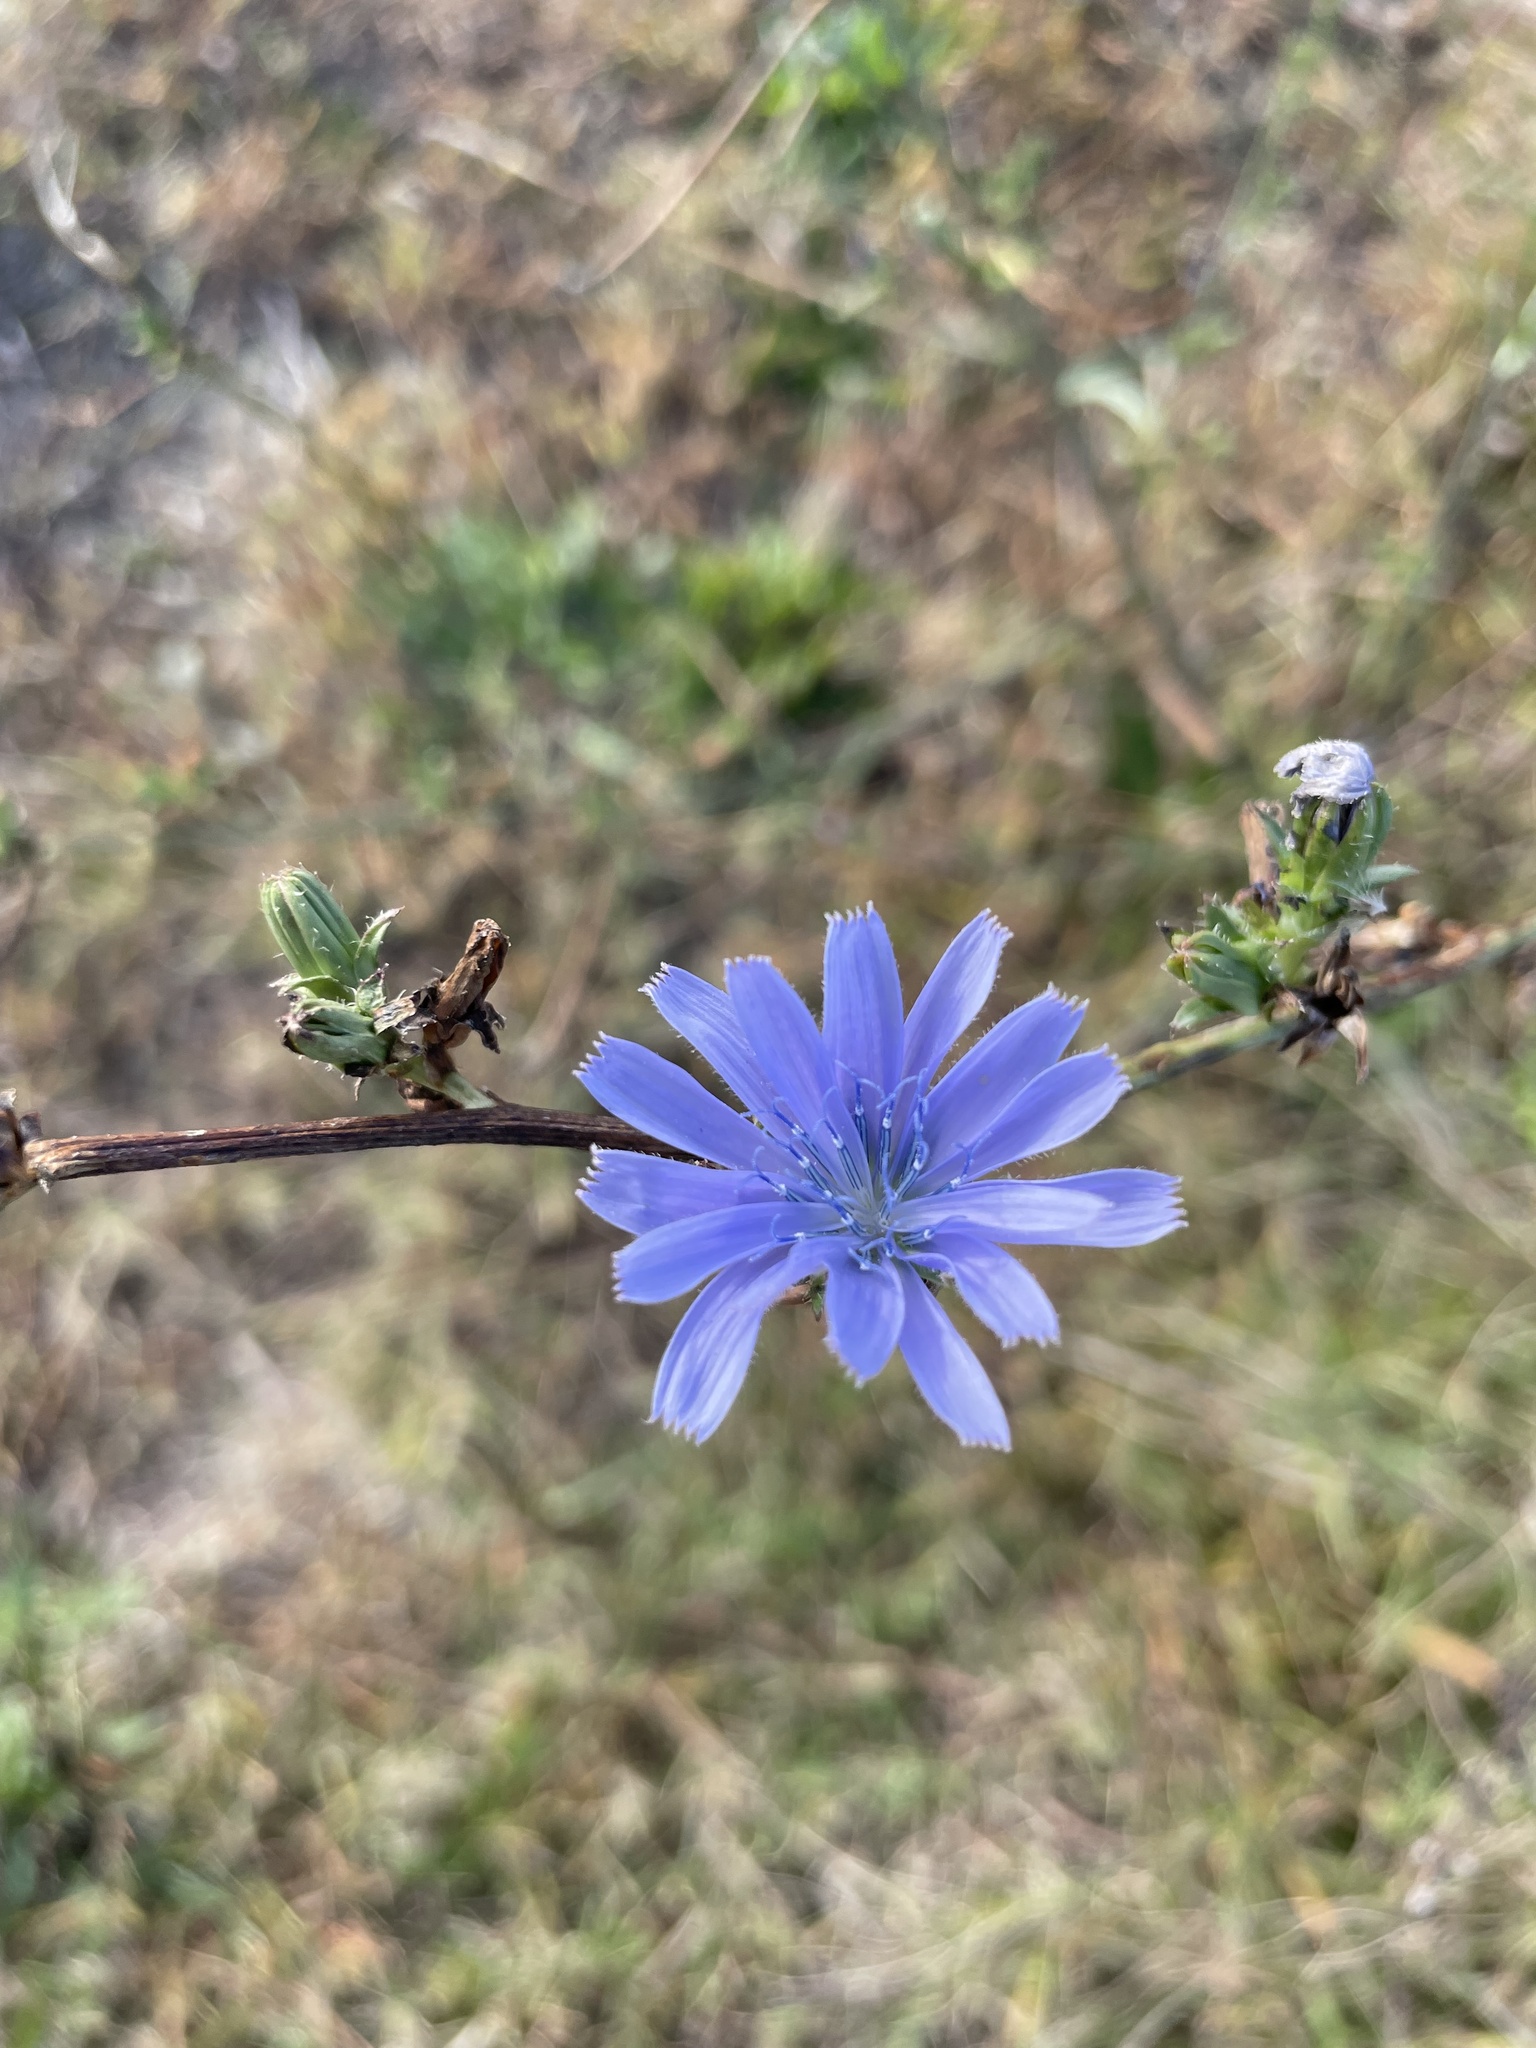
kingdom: Plantae
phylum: Tracheophyta
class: Magnoliopsida
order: Asterales
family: Asteraceae
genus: Cichorium
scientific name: Cichorium intybus
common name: Chicory
